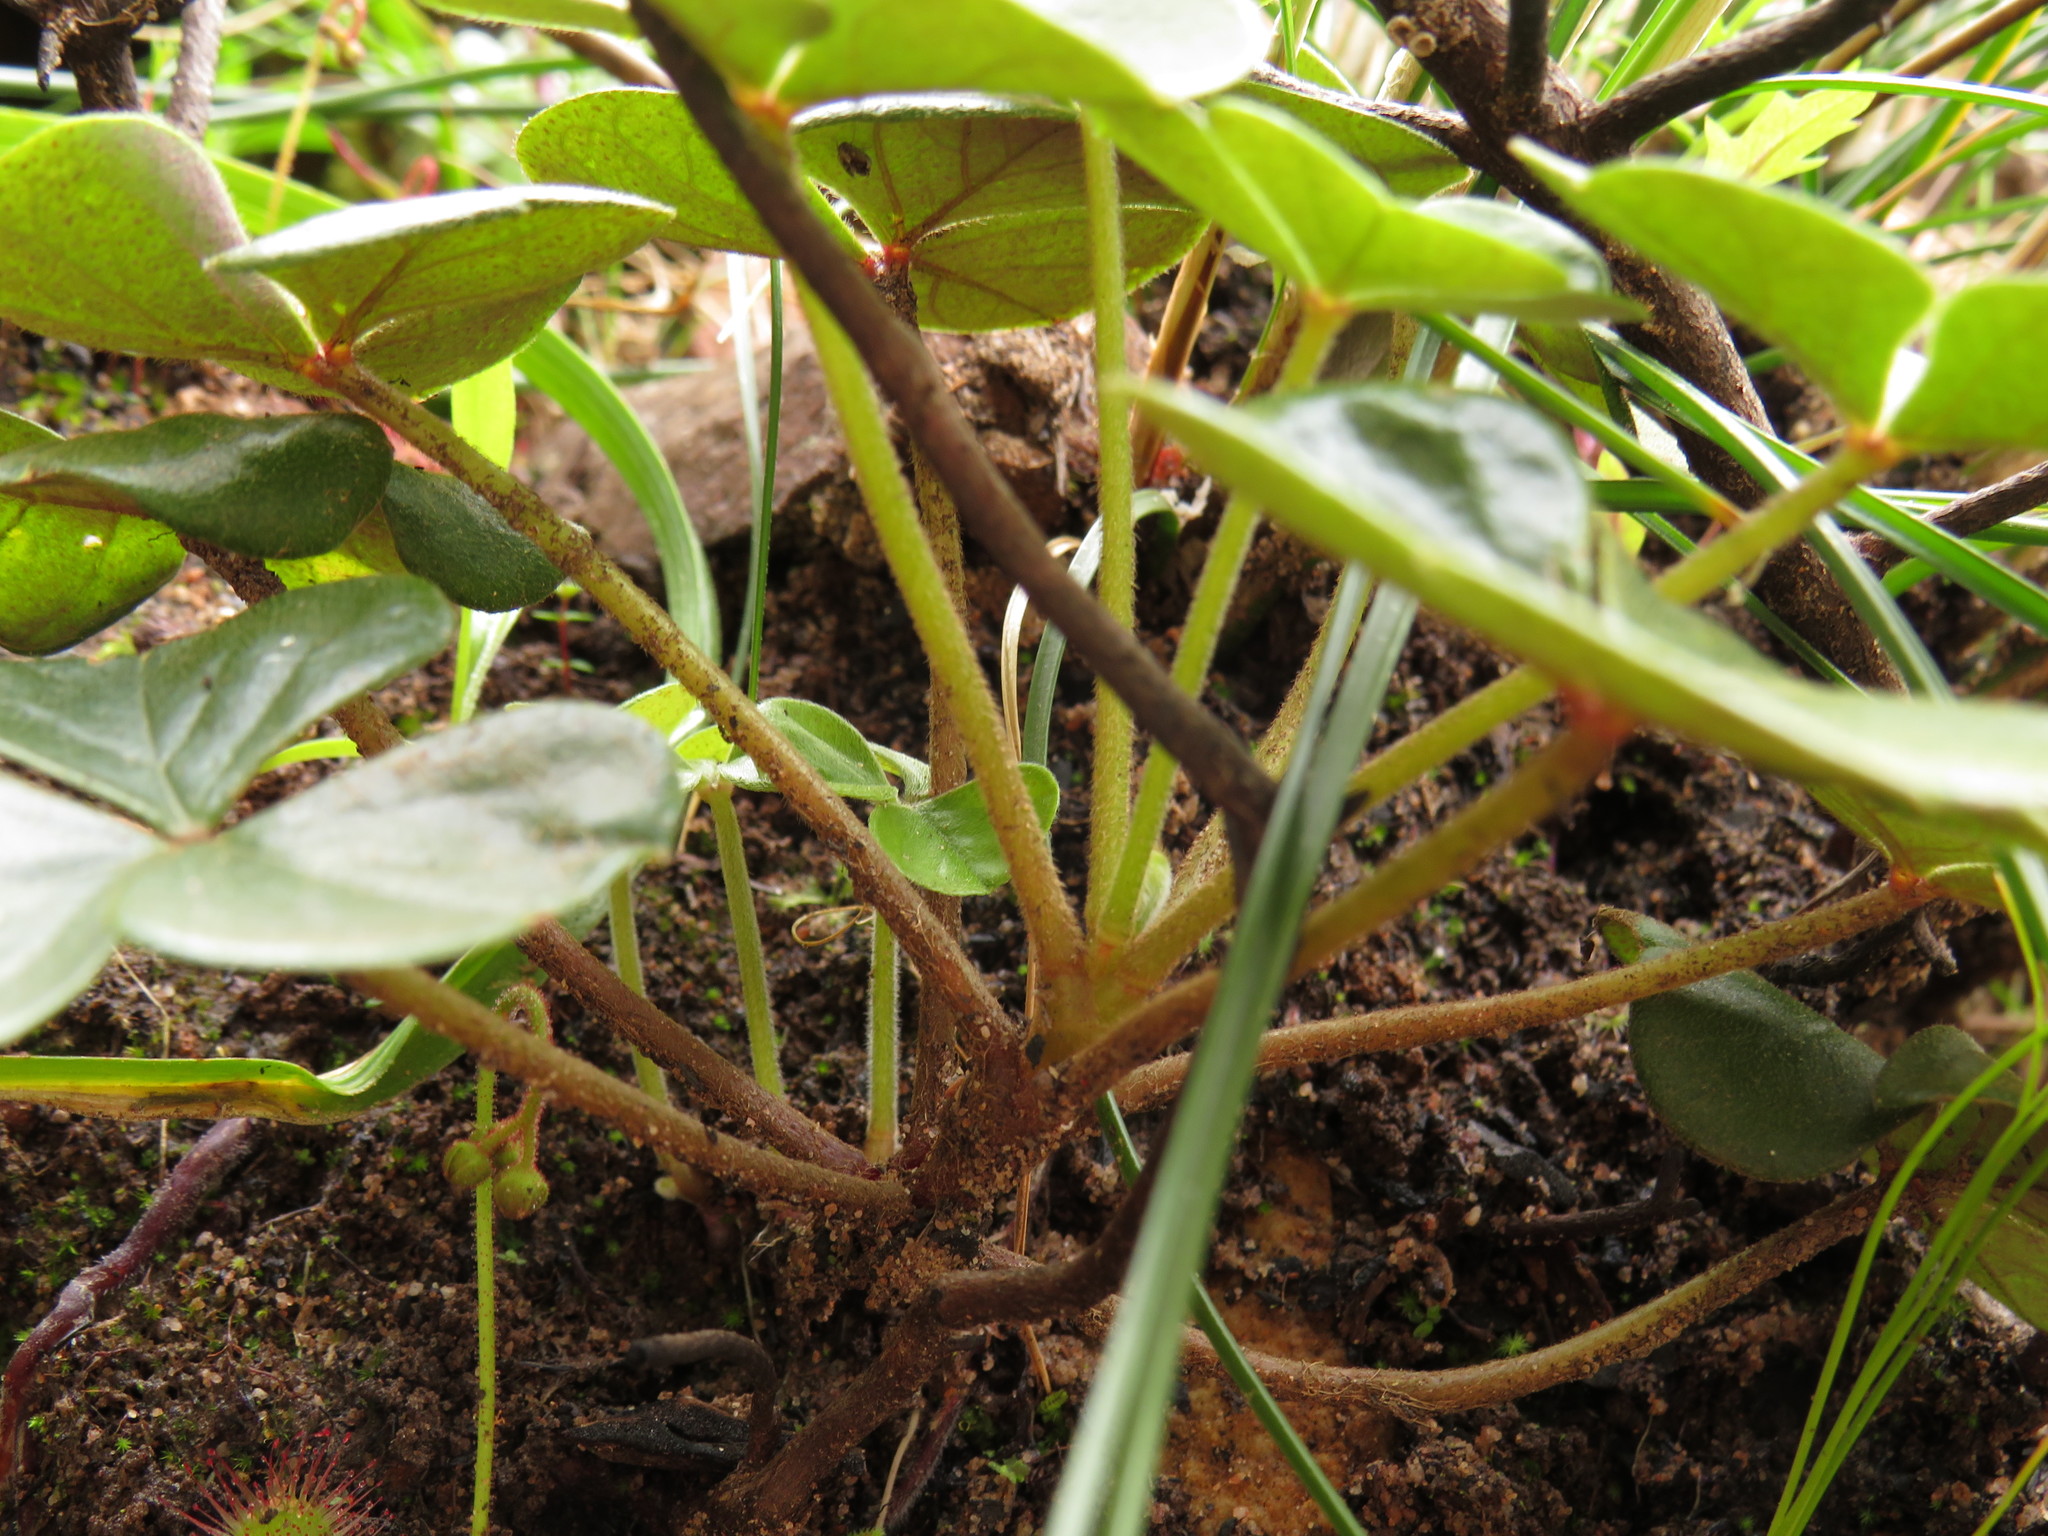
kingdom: Plantae
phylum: Tracheophyta
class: Magnoliopsida
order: Oxalidales
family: Oxalidaceae
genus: Oxalis
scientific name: Oxalis truncatula
